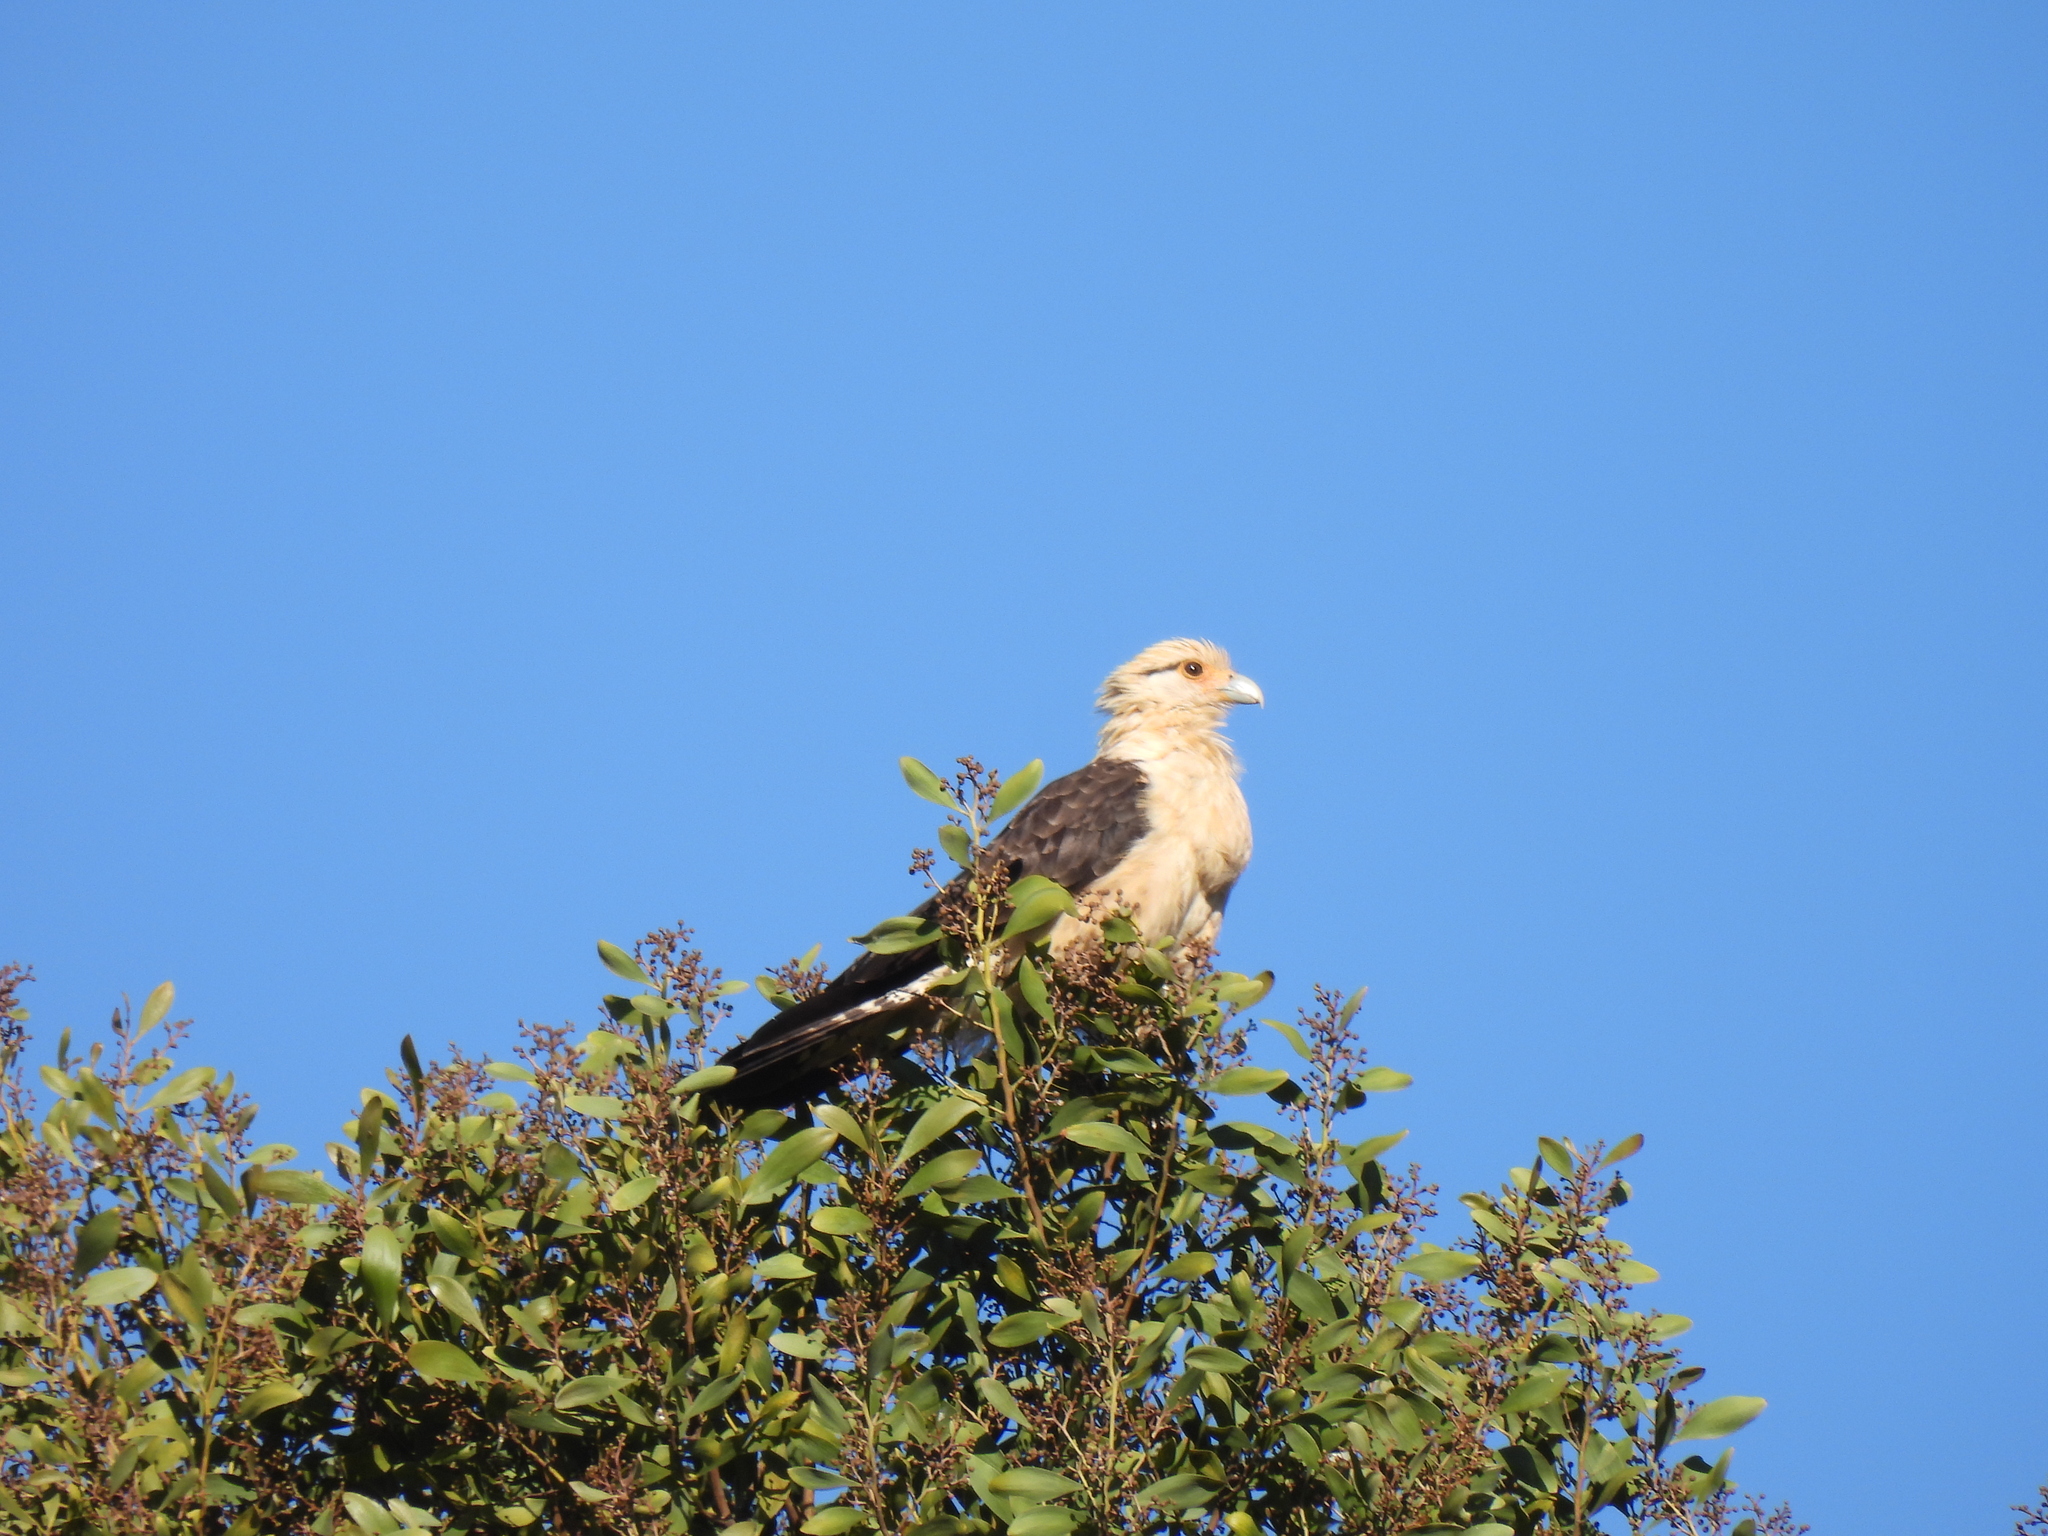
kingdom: Animalia
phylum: Chordata
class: Aves
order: Falconiformes
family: Falconidae
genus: Daptrius
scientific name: Daptrius
